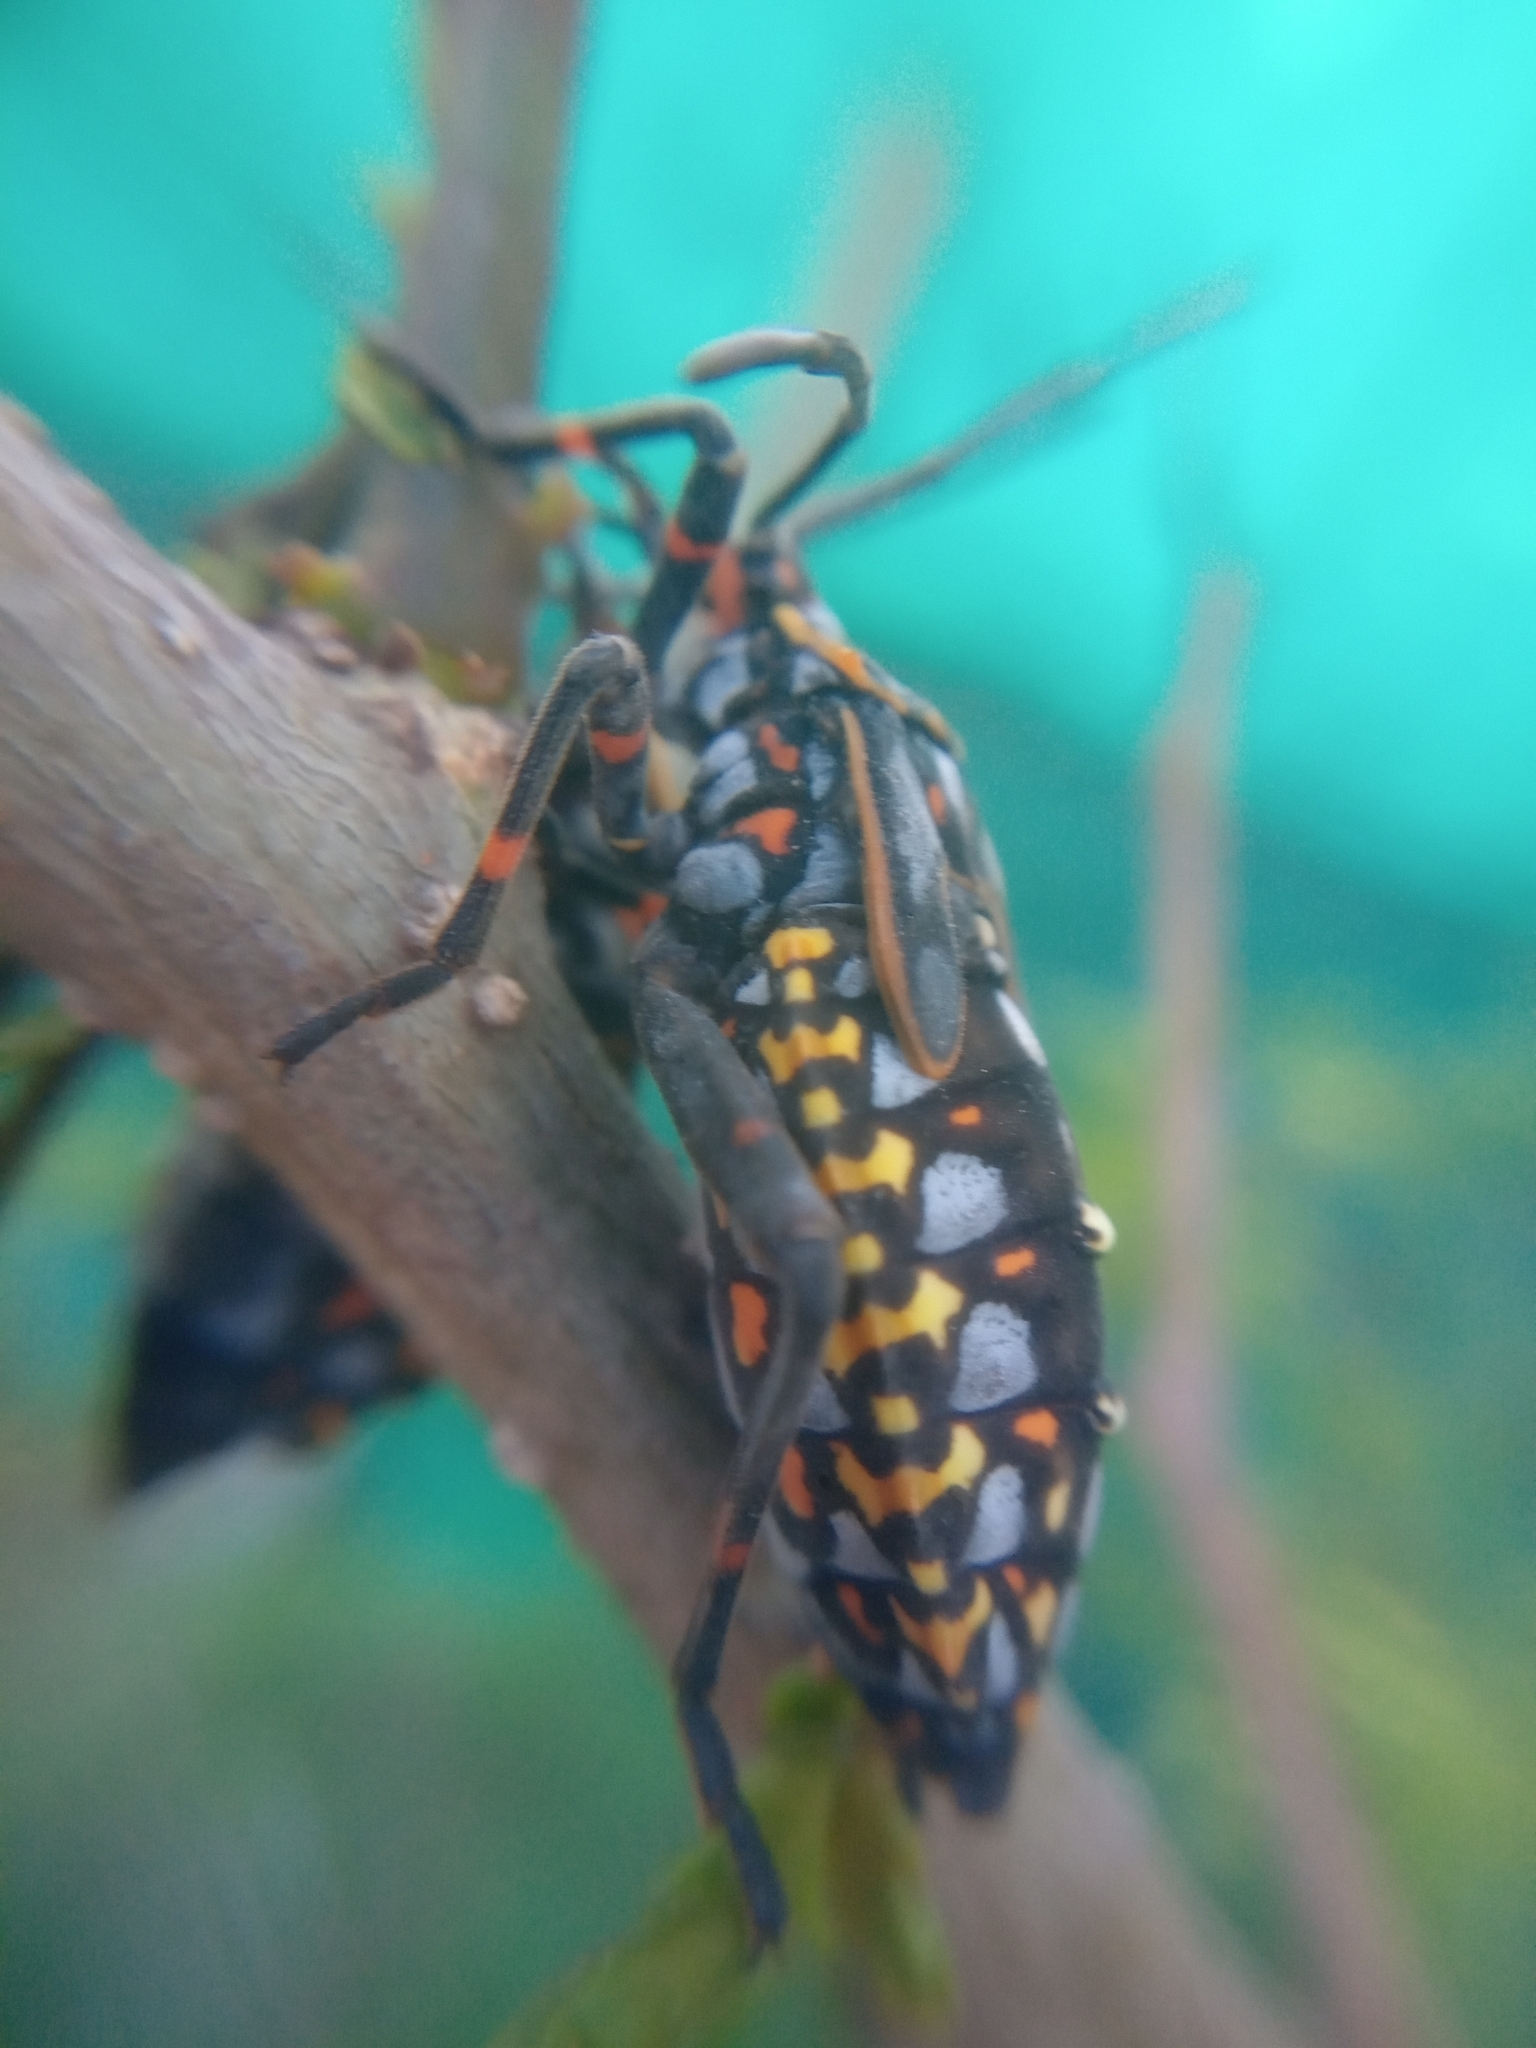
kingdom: Animalia
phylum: Arthropoda
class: Insecta
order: Hemiptera
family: Coreidae
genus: Pachylis
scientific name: Pachylis argentinus
